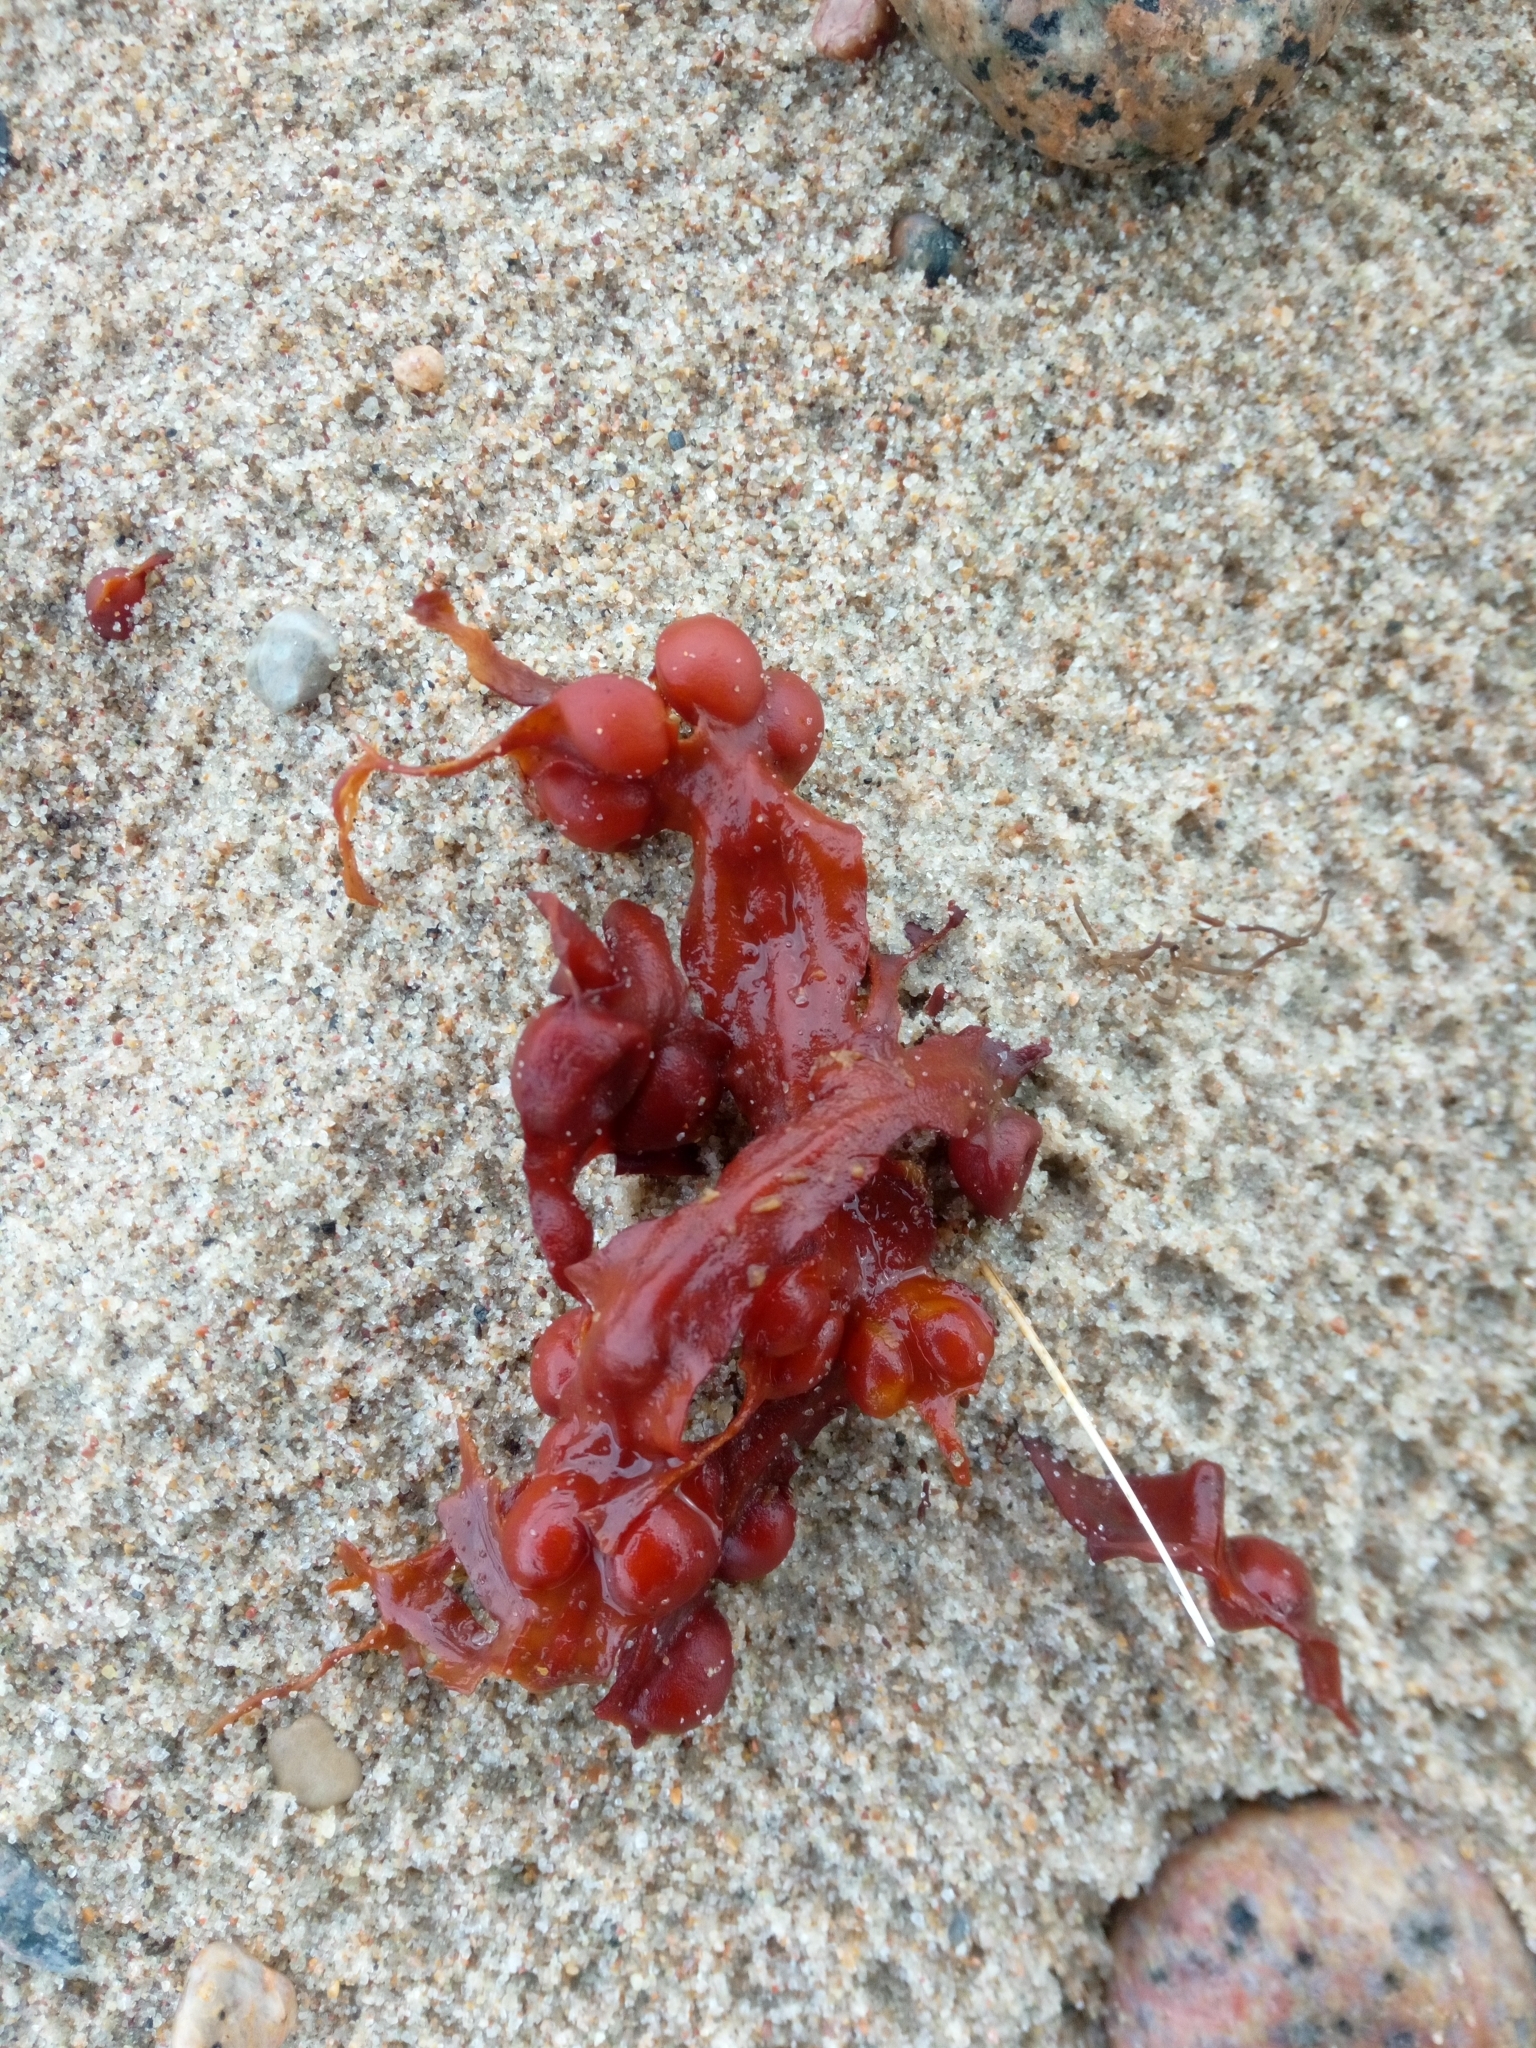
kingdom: Chromista
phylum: Ochrophyta
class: Phaeophyceae
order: Fucales
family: Fucaceae
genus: Fucus
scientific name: Fucus vesiculosus
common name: Bladder wrack
